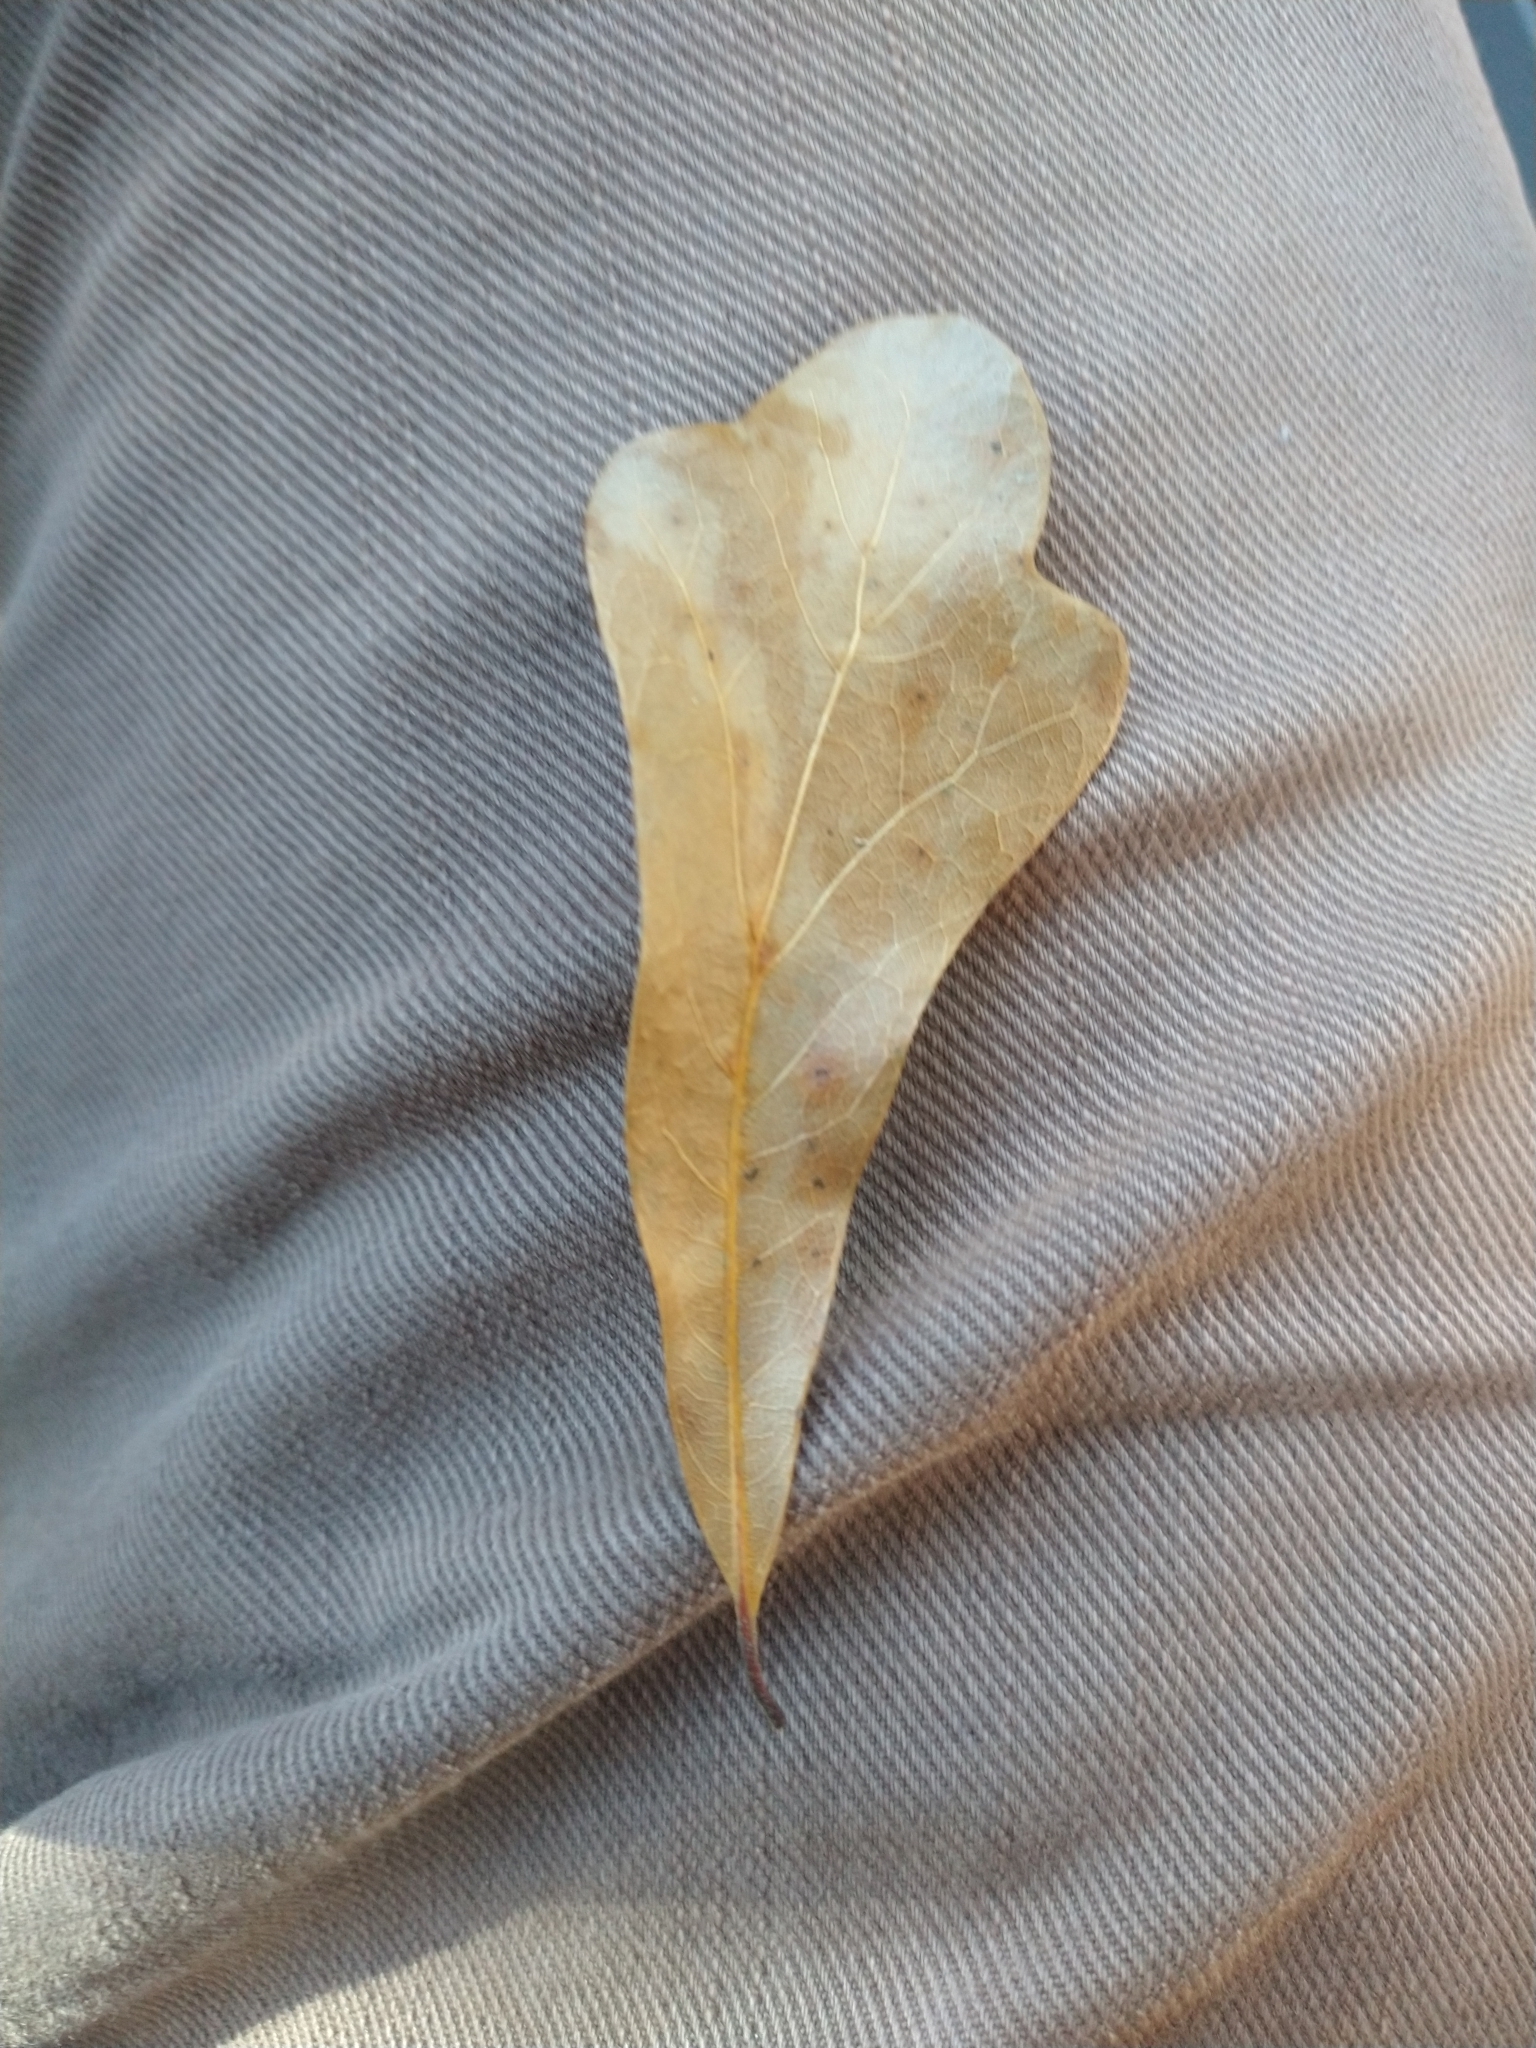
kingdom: Plantae
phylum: Tracheophyta
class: Magnoliopsida
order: Fagales
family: Fagaceae
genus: Quercus
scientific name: Quercus nigra
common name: Water oak
